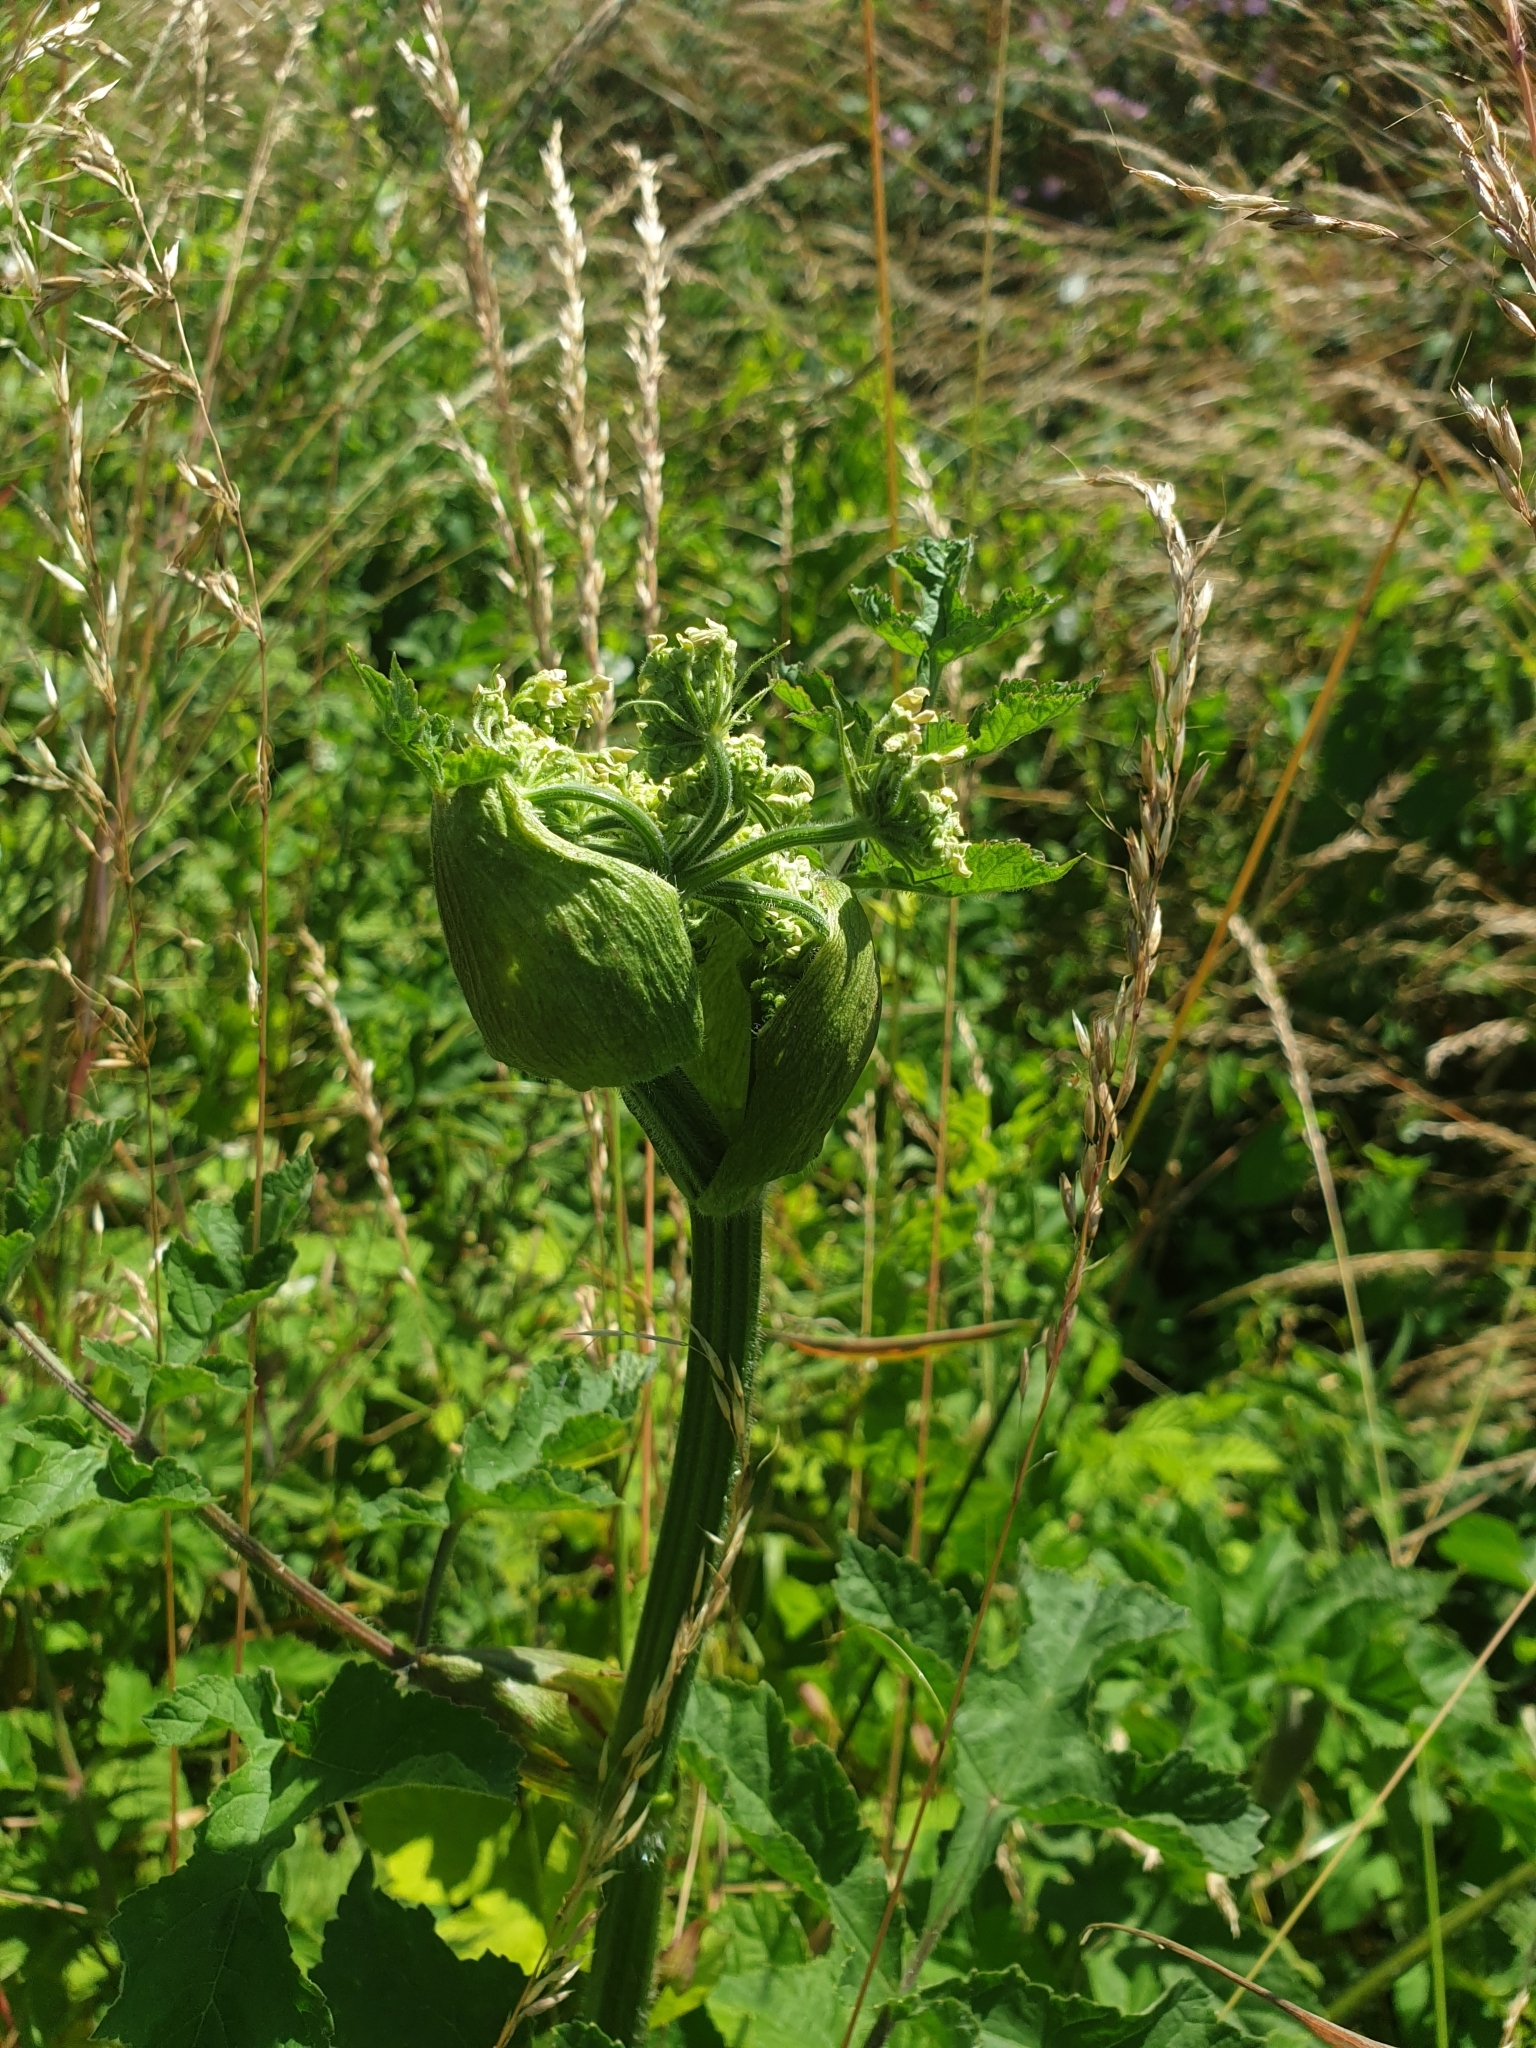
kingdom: Plantae
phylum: Tracheophyta
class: Magnoliopsida
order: Apiales
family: Apiaceae
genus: Heracleum
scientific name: Heracleum sphondylium
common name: Hogweed
